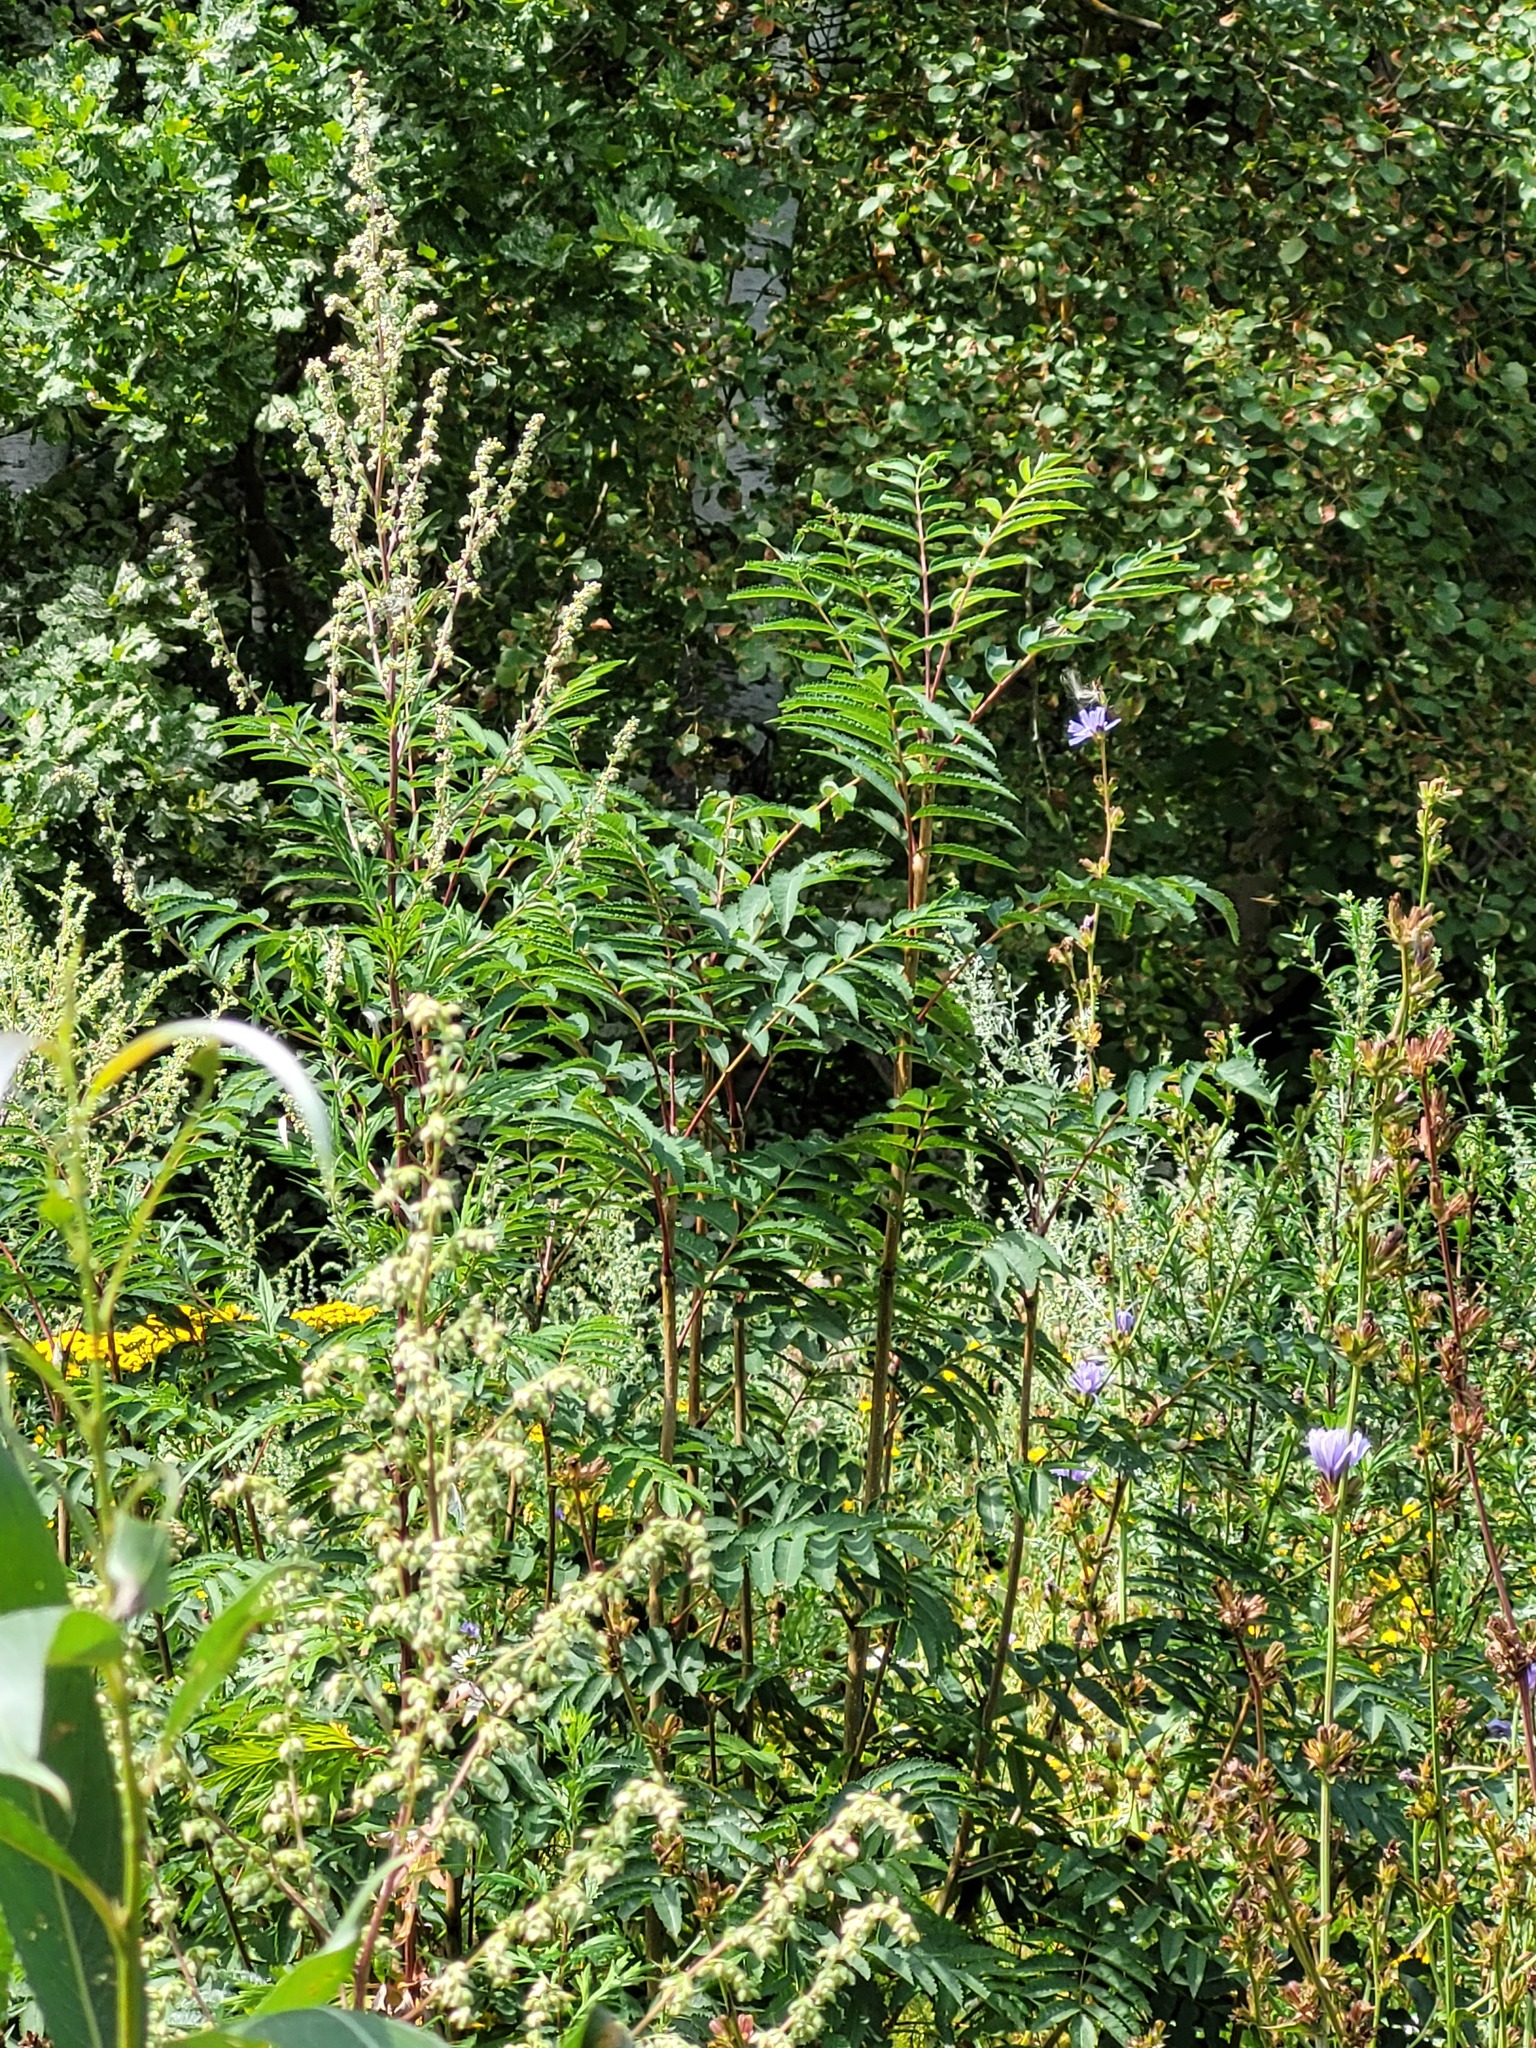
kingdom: Plantae
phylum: Tracheophyta
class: Magnoliopsida
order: Rosales
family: Rosaceae
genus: Sorbus
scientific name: Sorbus aucuparia
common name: Rowan
